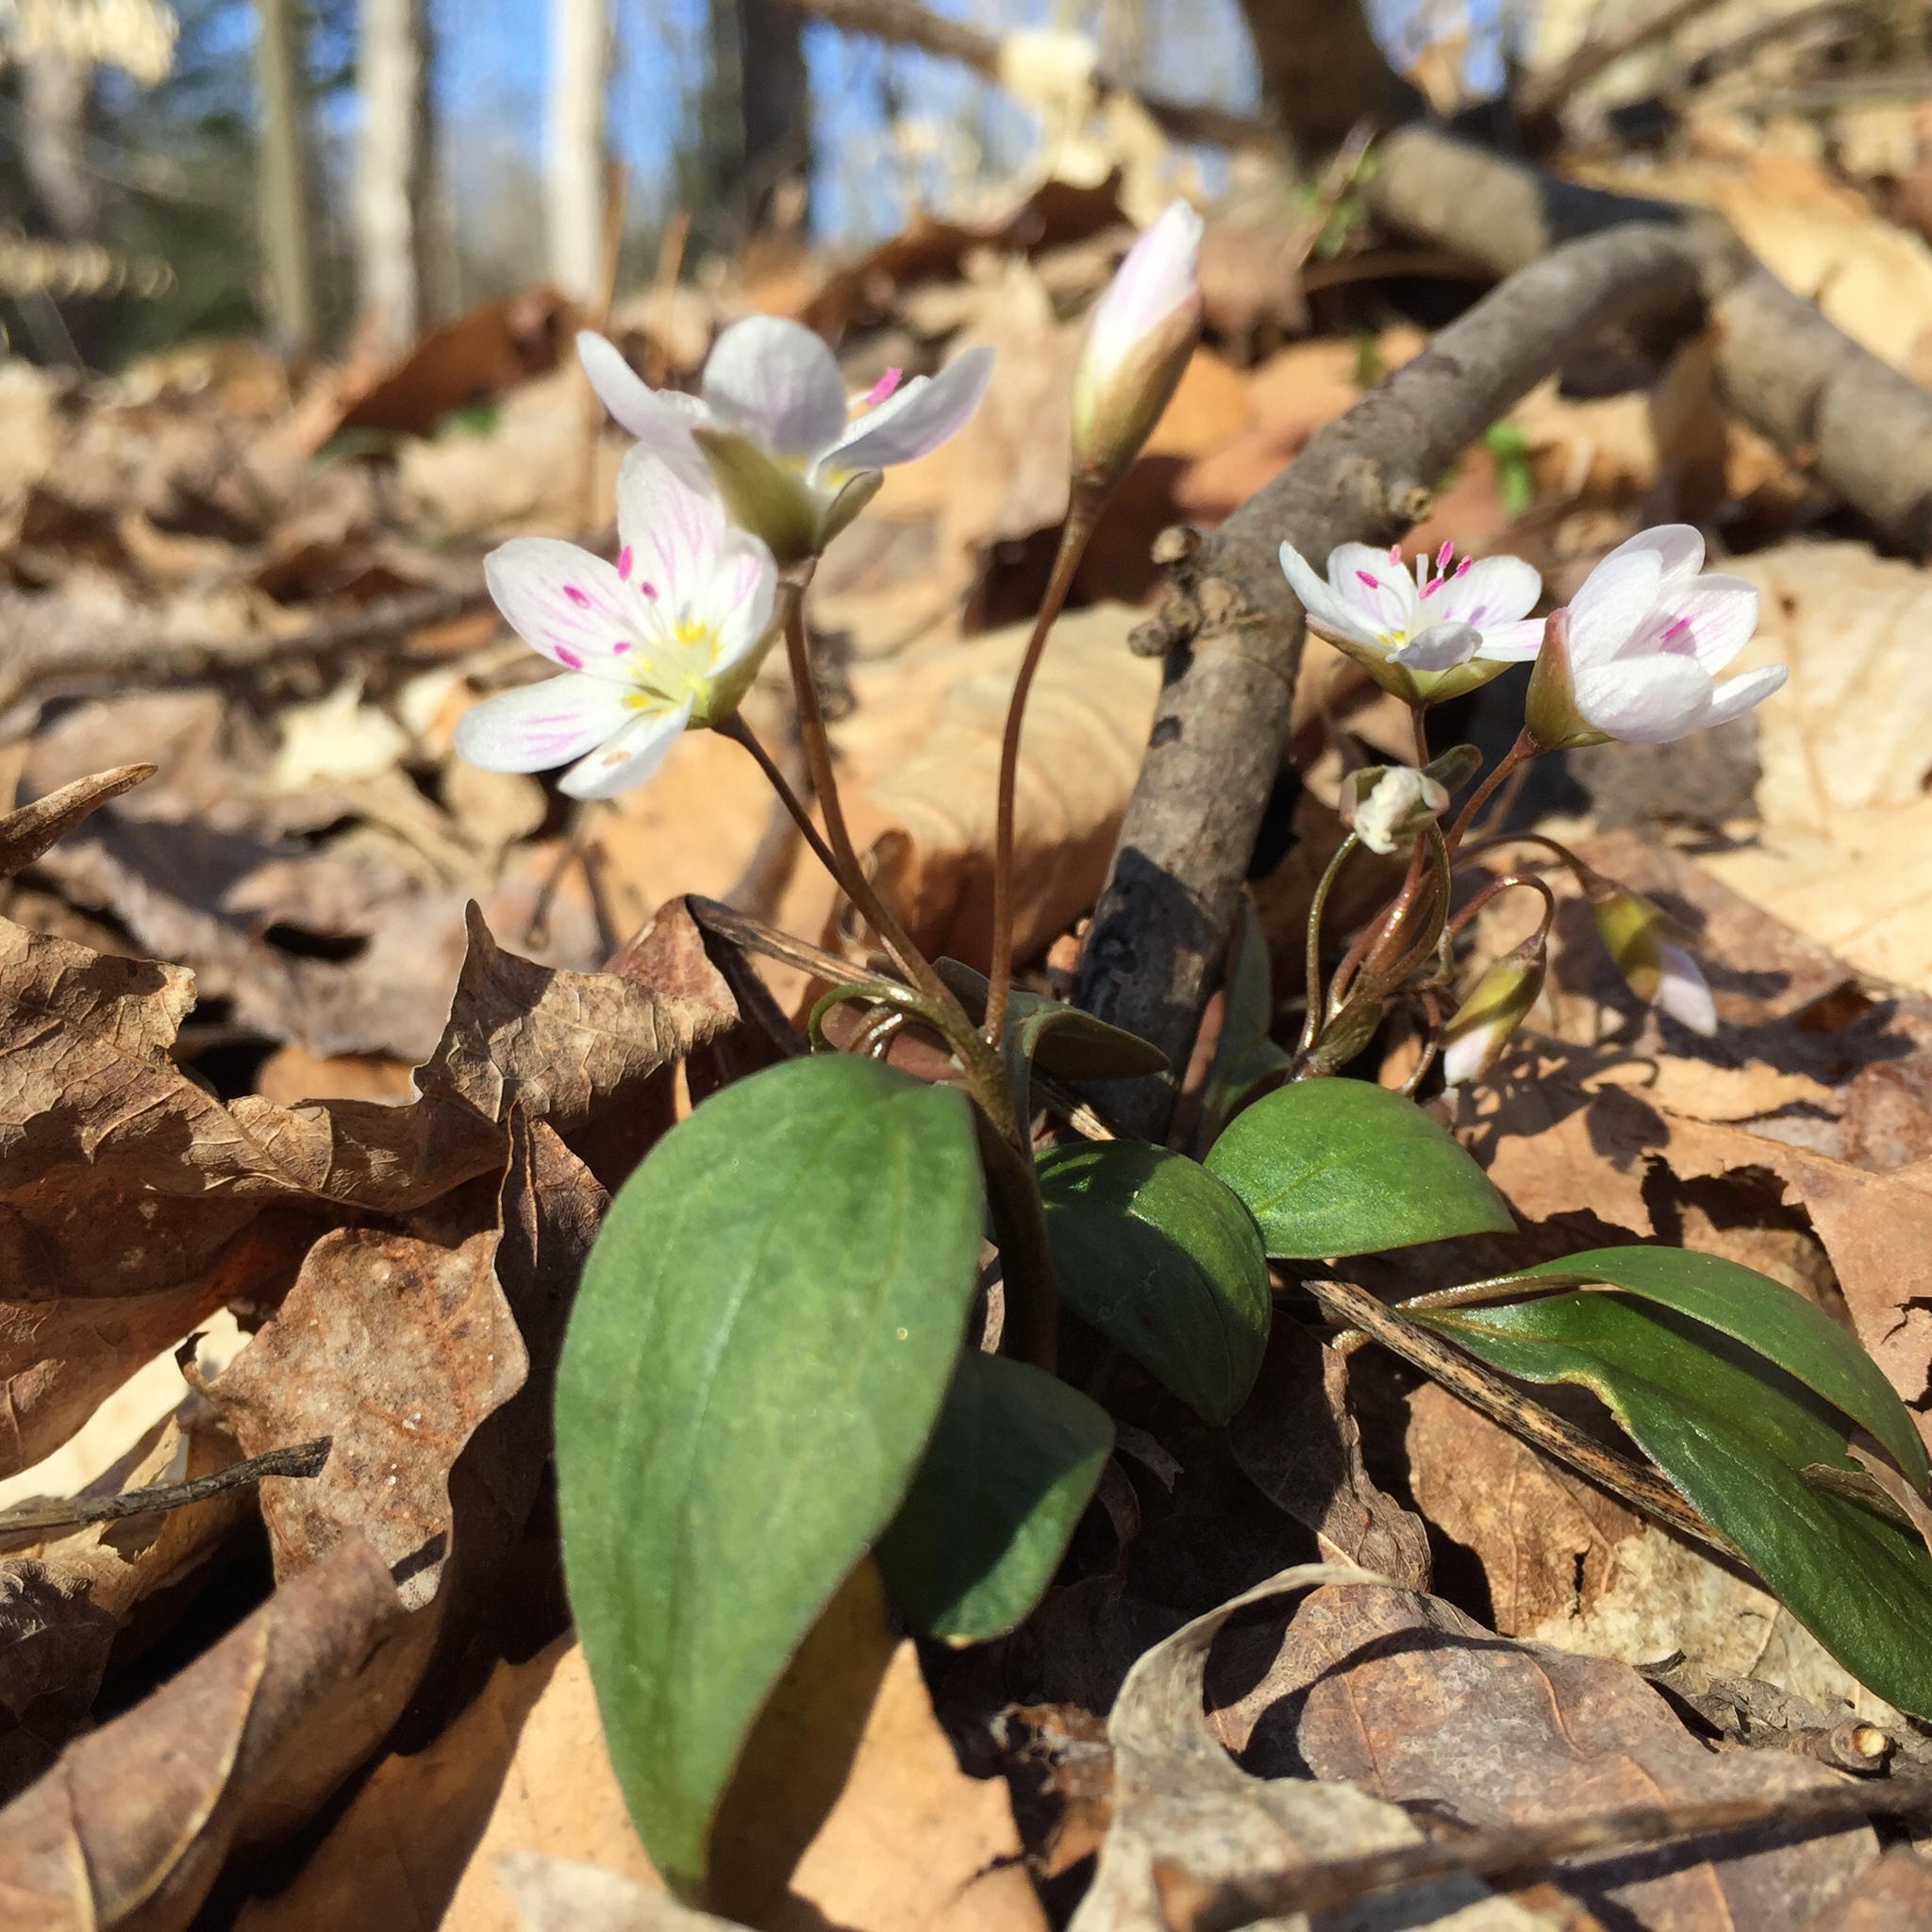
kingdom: Plantae
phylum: Tracheophyta
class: Magnoliopsida
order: Caryophyllales
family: Montiaceae
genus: Claytonia
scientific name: Claytonia caroliniana
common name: Carolina spring beauty
